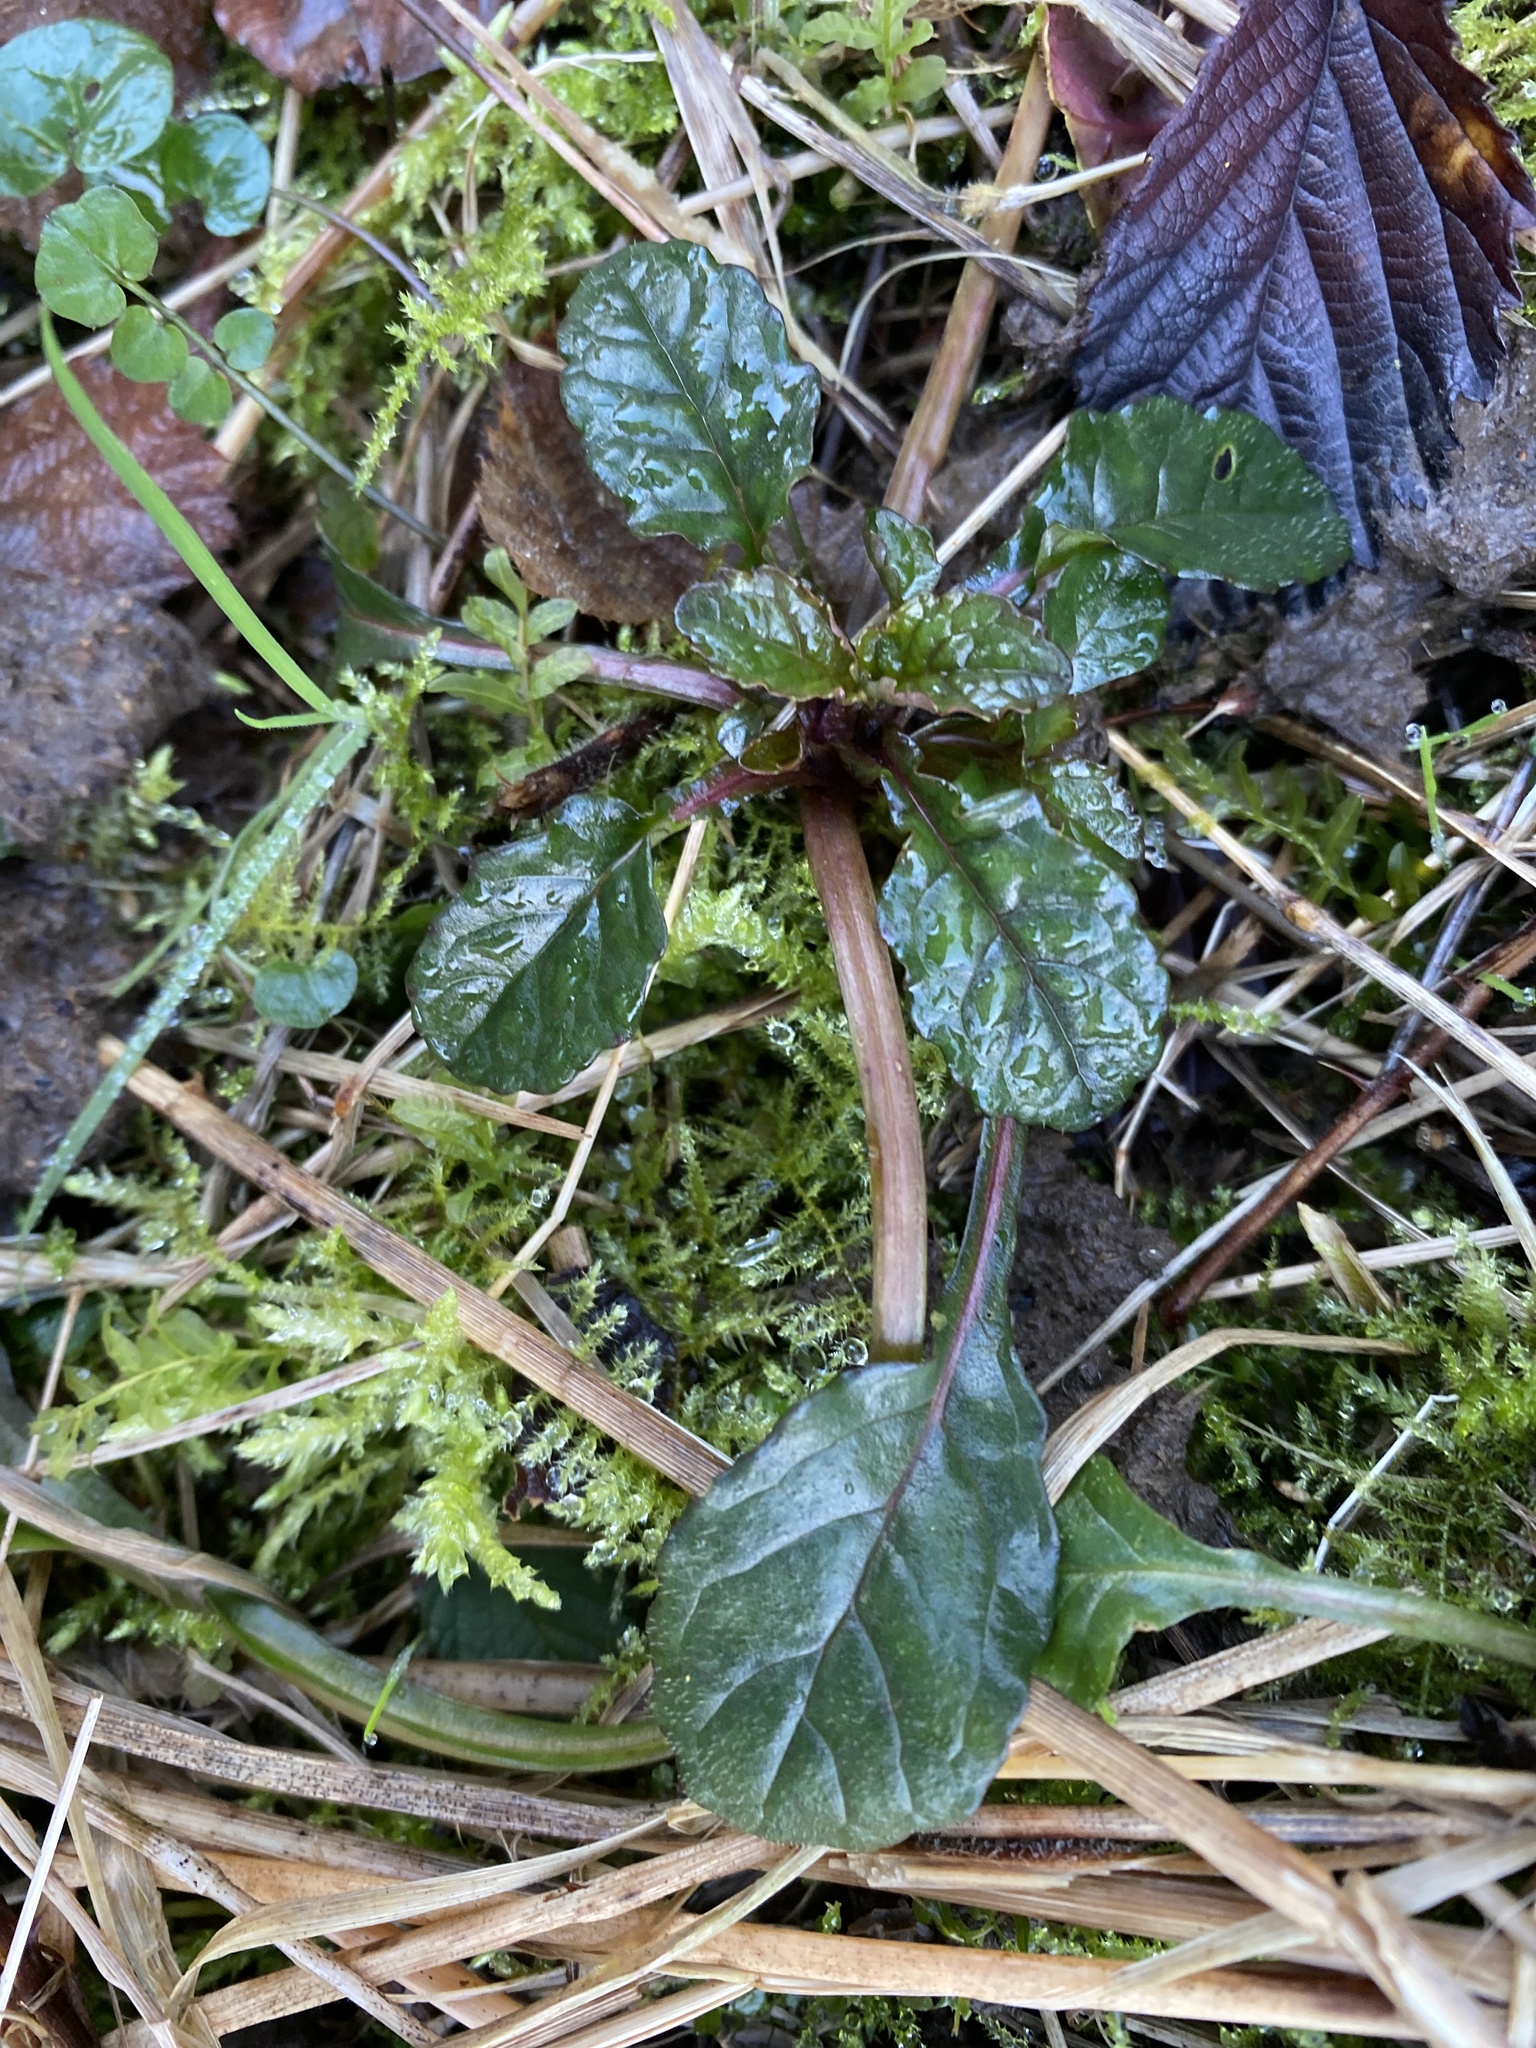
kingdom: Plantae
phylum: Tracheophyta
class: Magnoliopsida
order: Lamiales
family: Lamiaceae
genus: Ajuga
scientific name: Ajuga reptans
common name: Bugle
